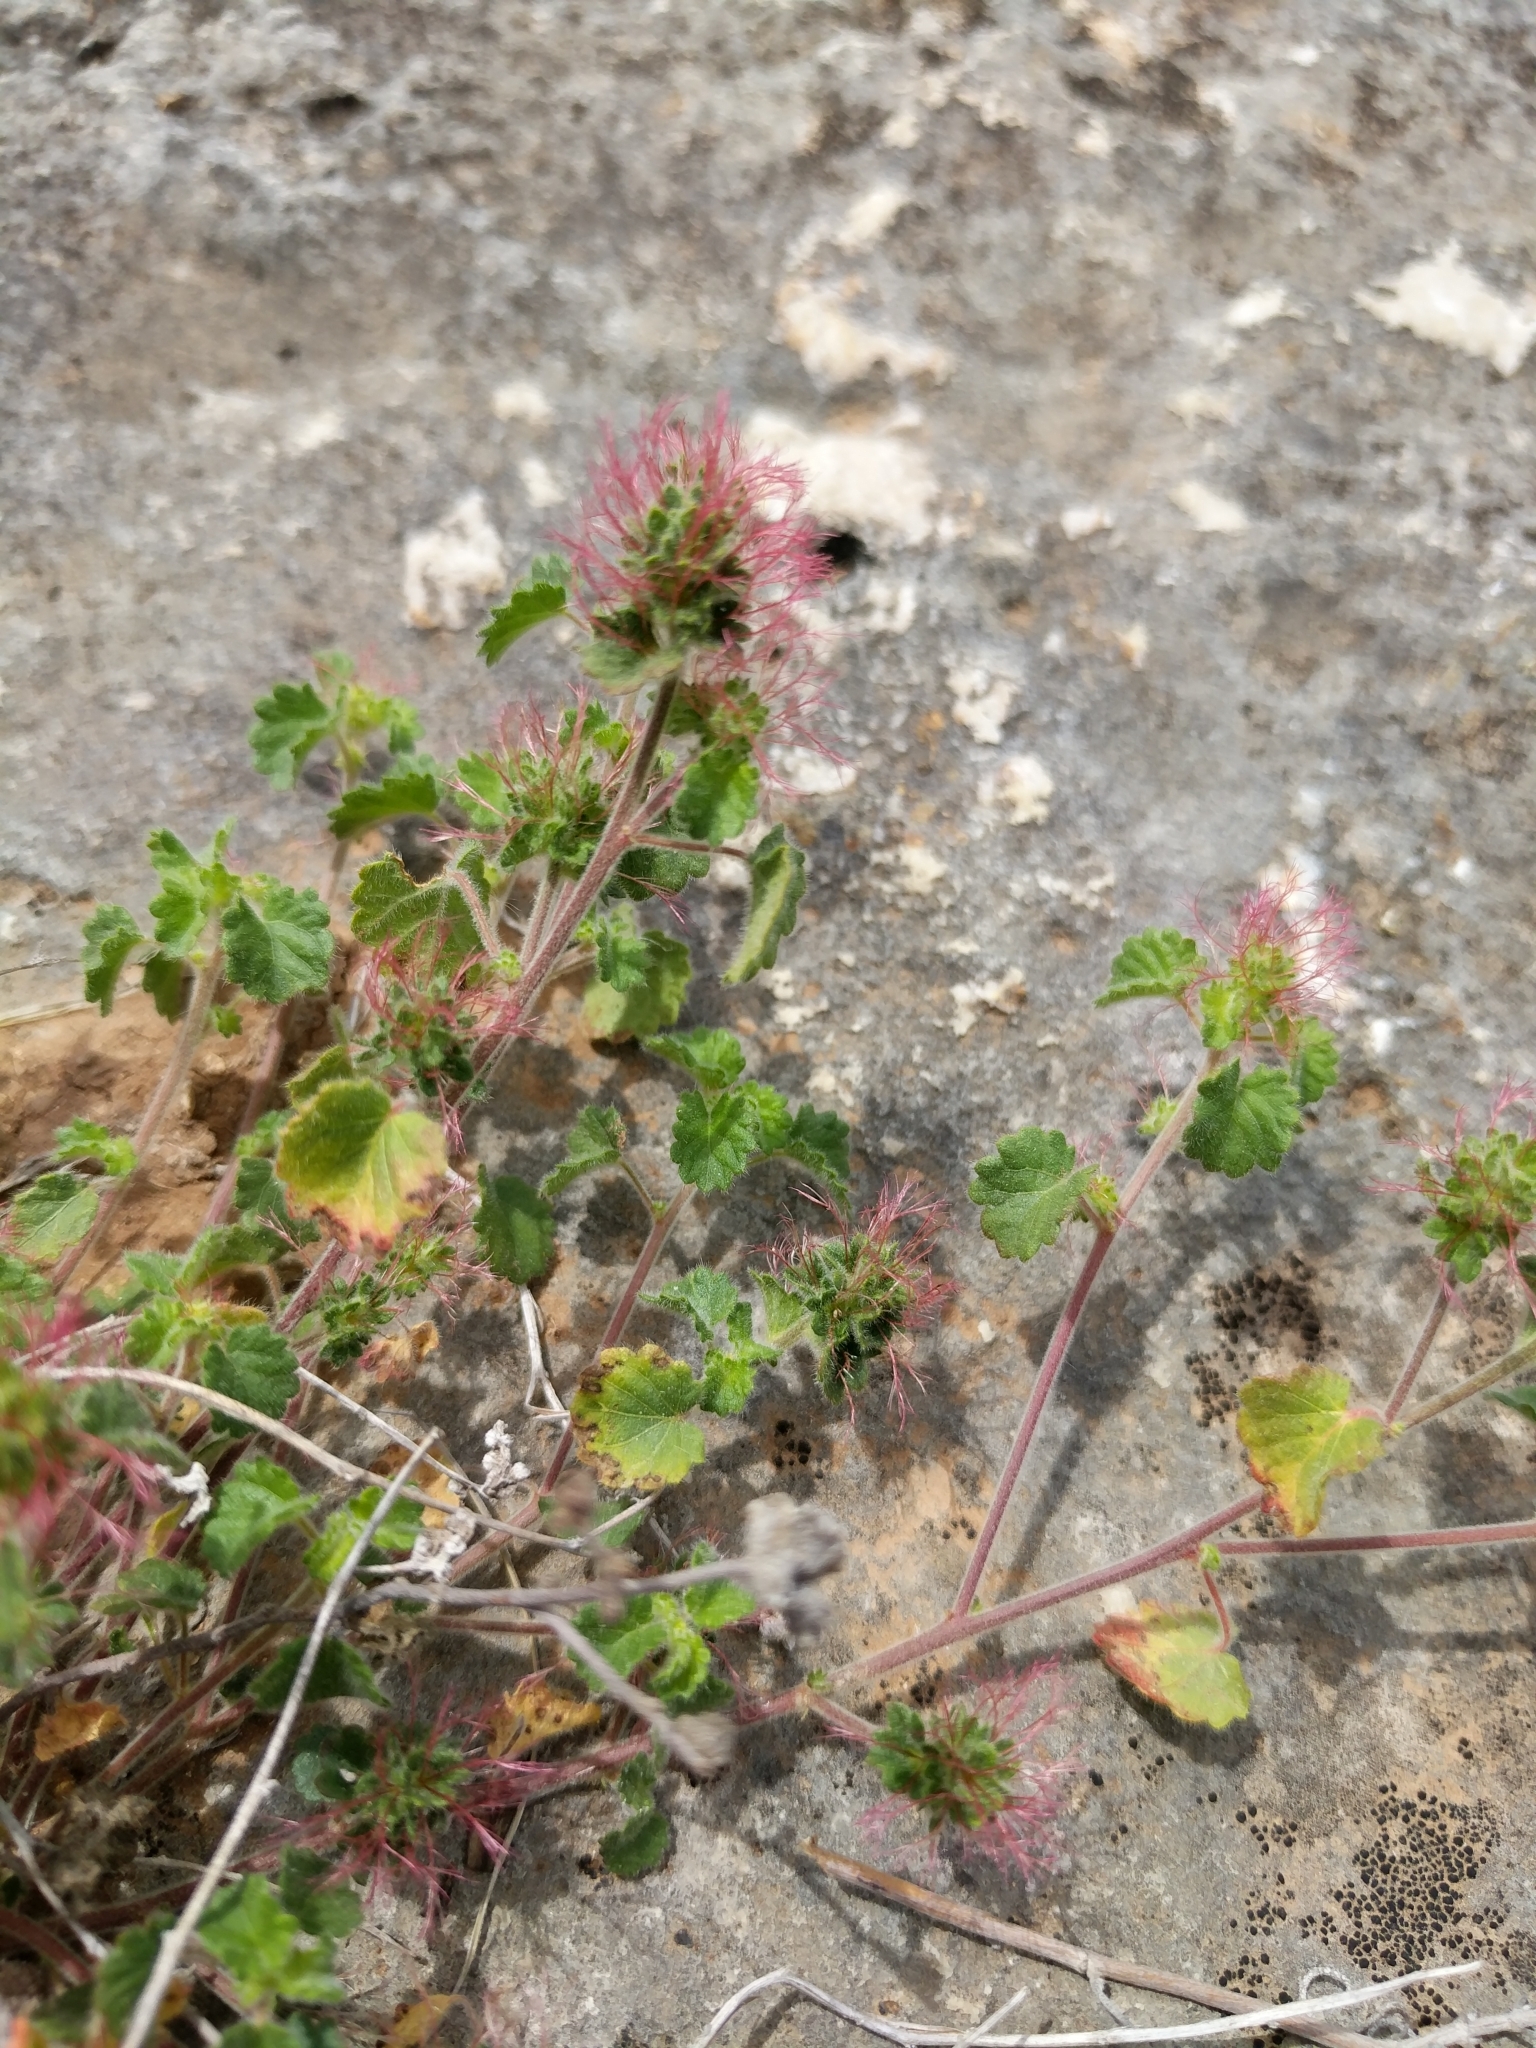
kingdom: Plantae
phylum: Tracheophyta
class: Magnoliopsida
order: Malpighiales
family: Euphorbiaceae
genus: Acalypha
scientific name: Acalypha monostachya
